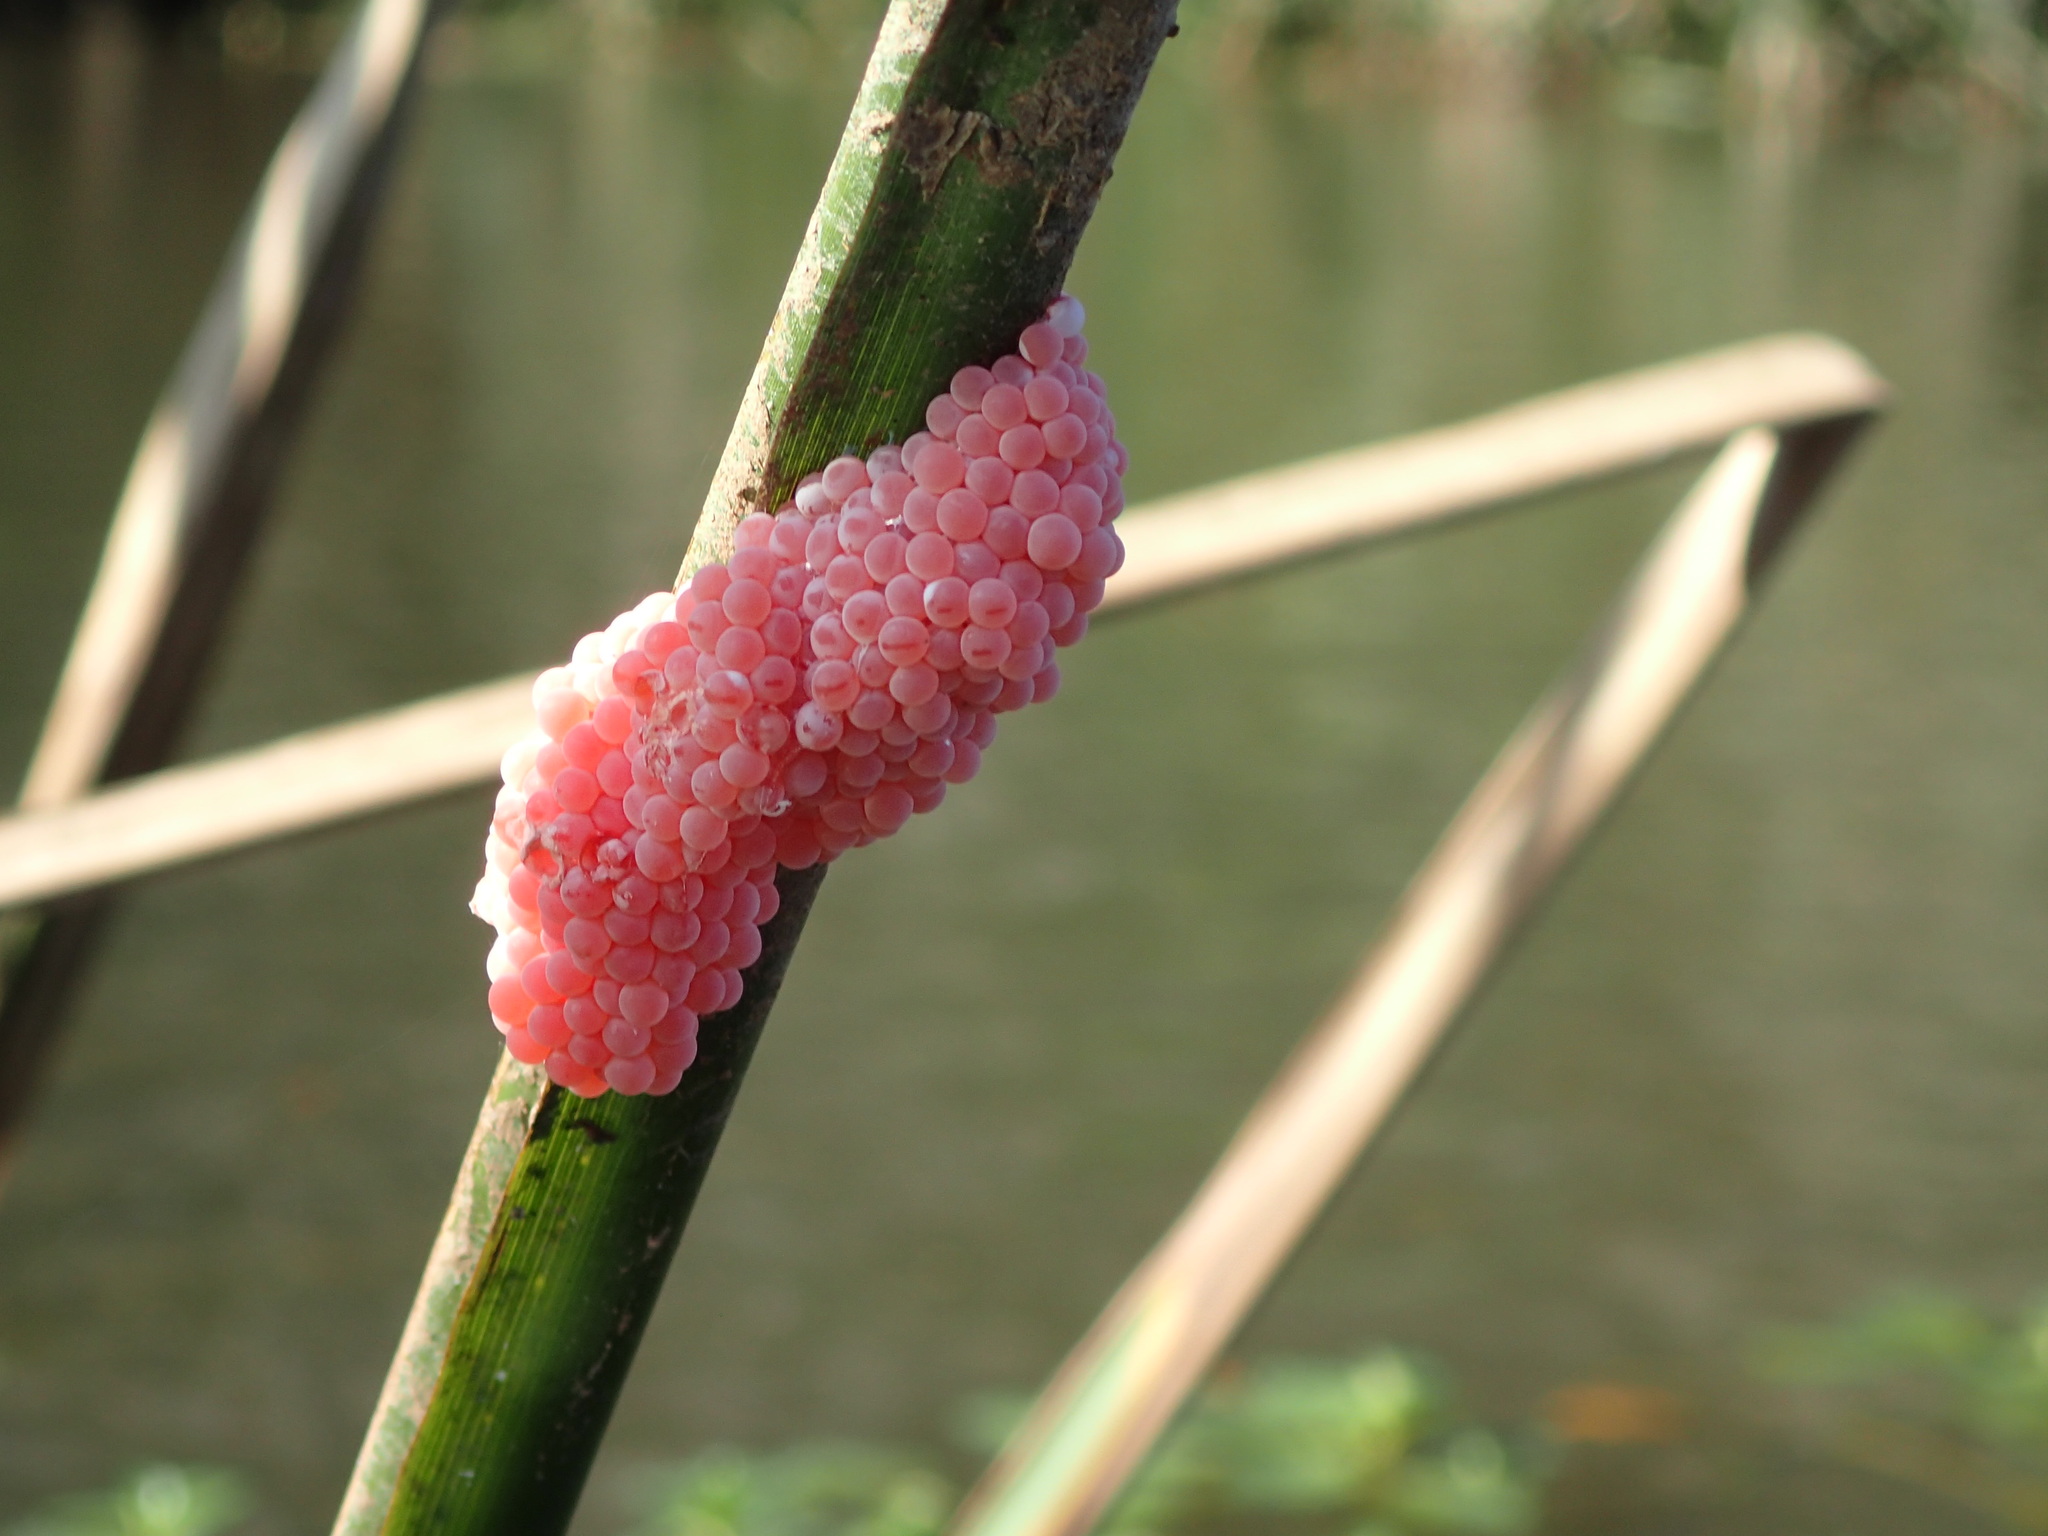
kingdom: Animalia
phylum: Mollusca
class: Gastropoda
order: Architaenioglossa
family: Ampullariidae
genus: Pomacea
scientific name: Pomacea maculata
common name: Giant applesnail
